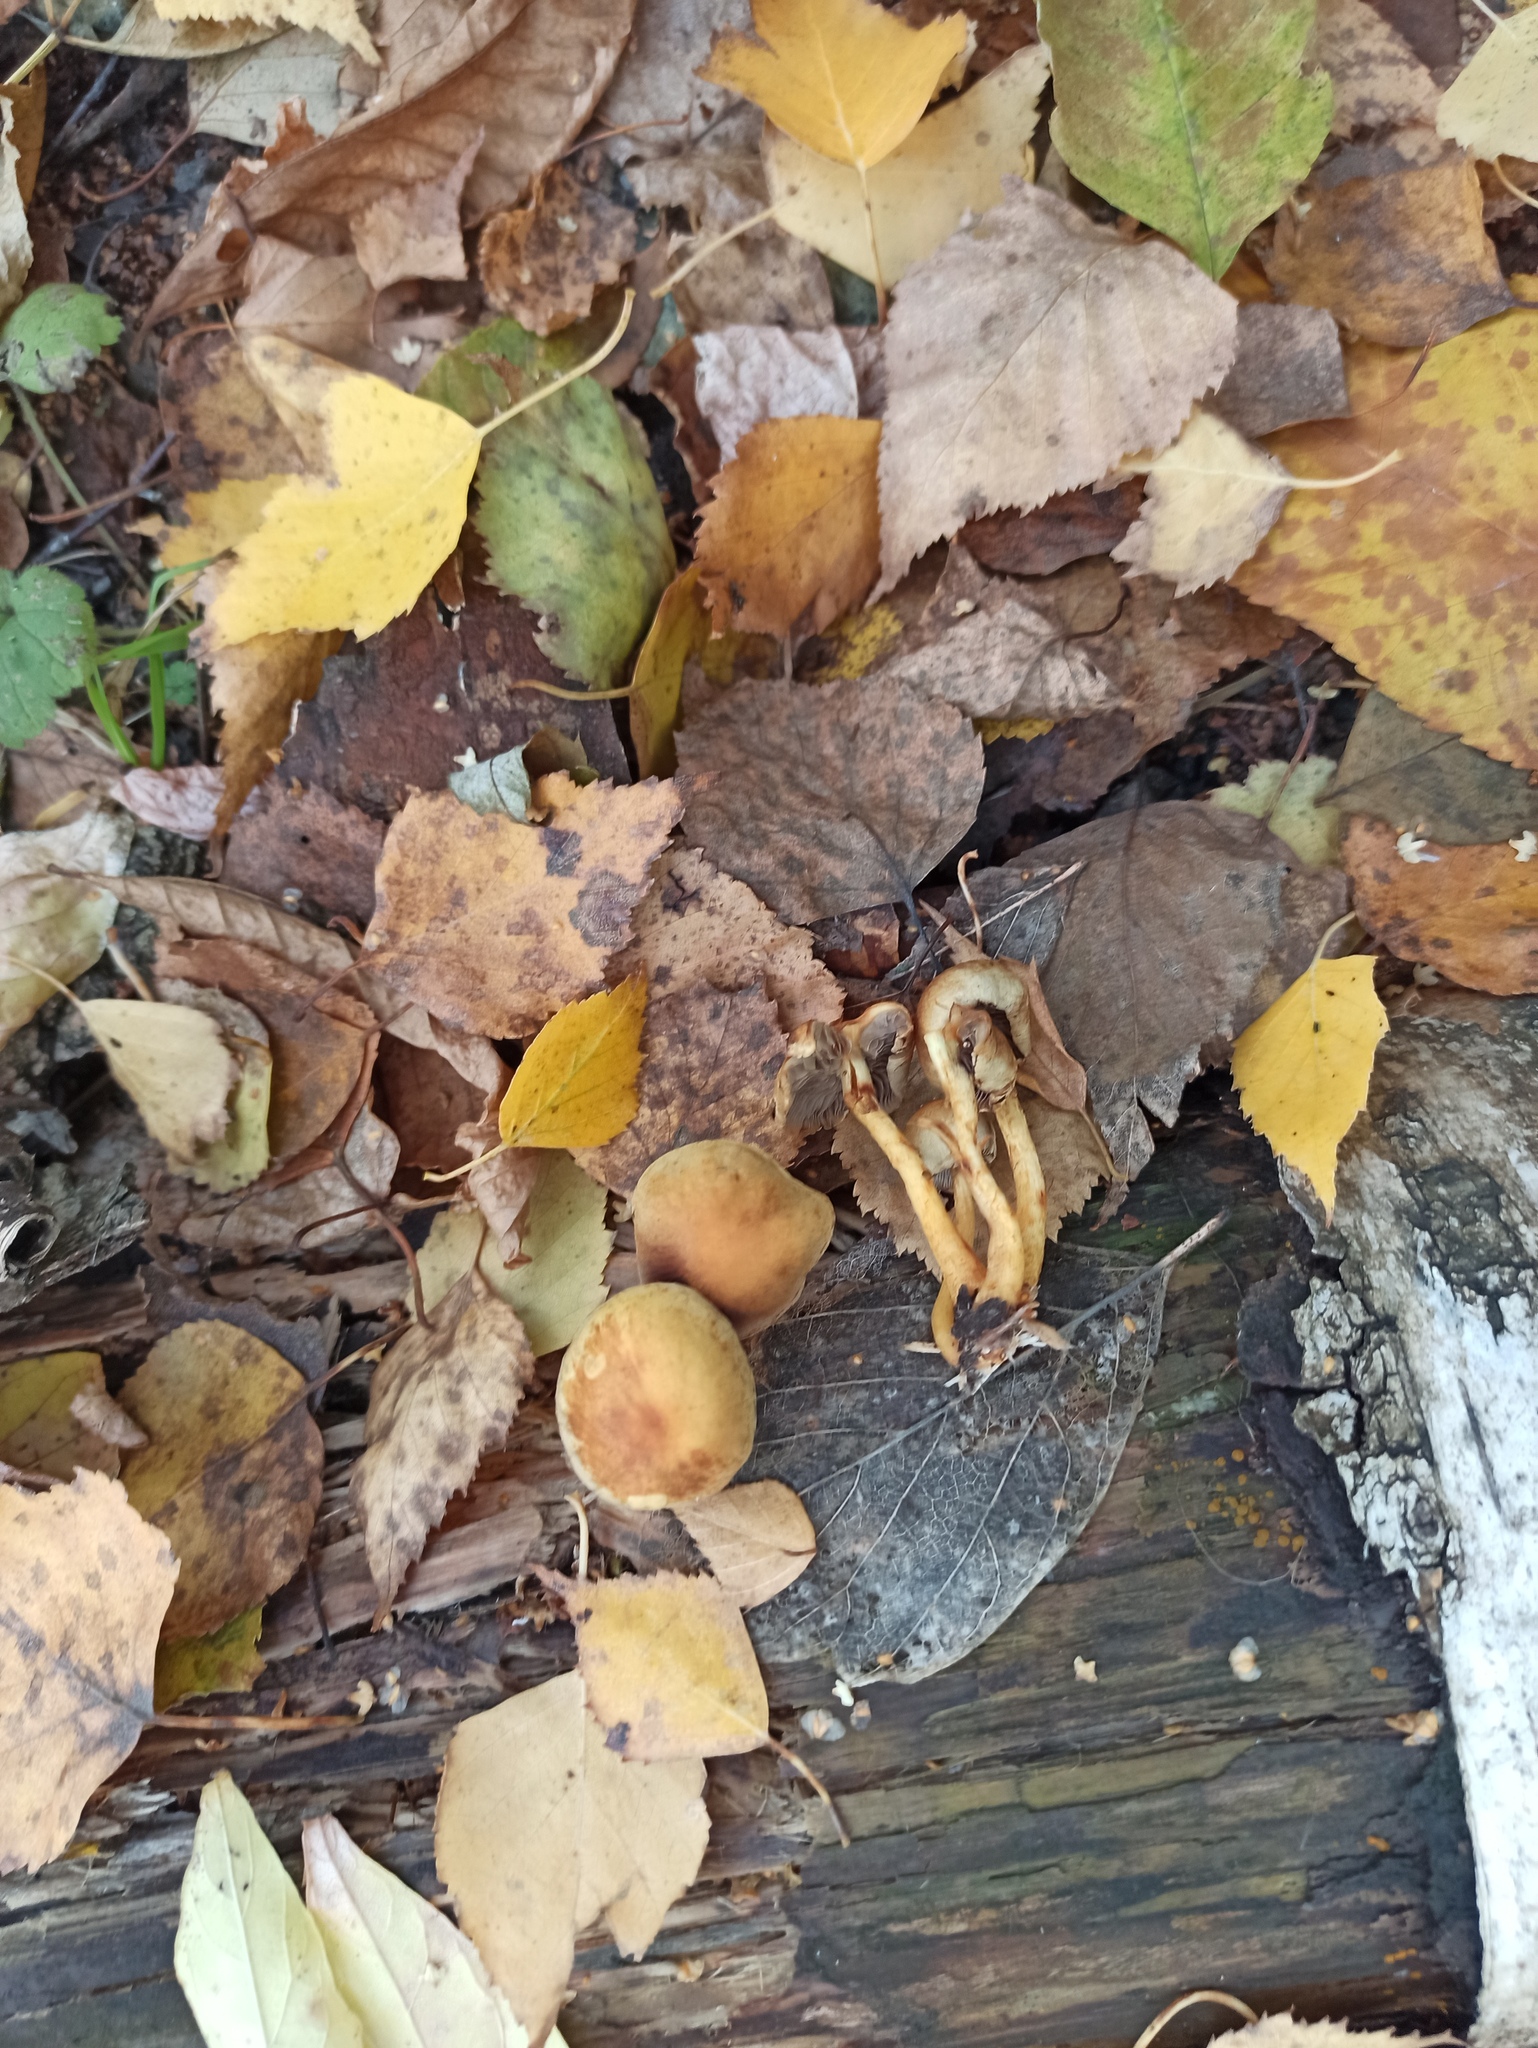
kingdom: Fungi
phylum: Basidiomycota
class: Agaricomycetes
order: Agaricales
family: Strophariaceae
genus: Hypholoma
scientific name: Hypholoma fasciculare
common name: Sulphur tuft
